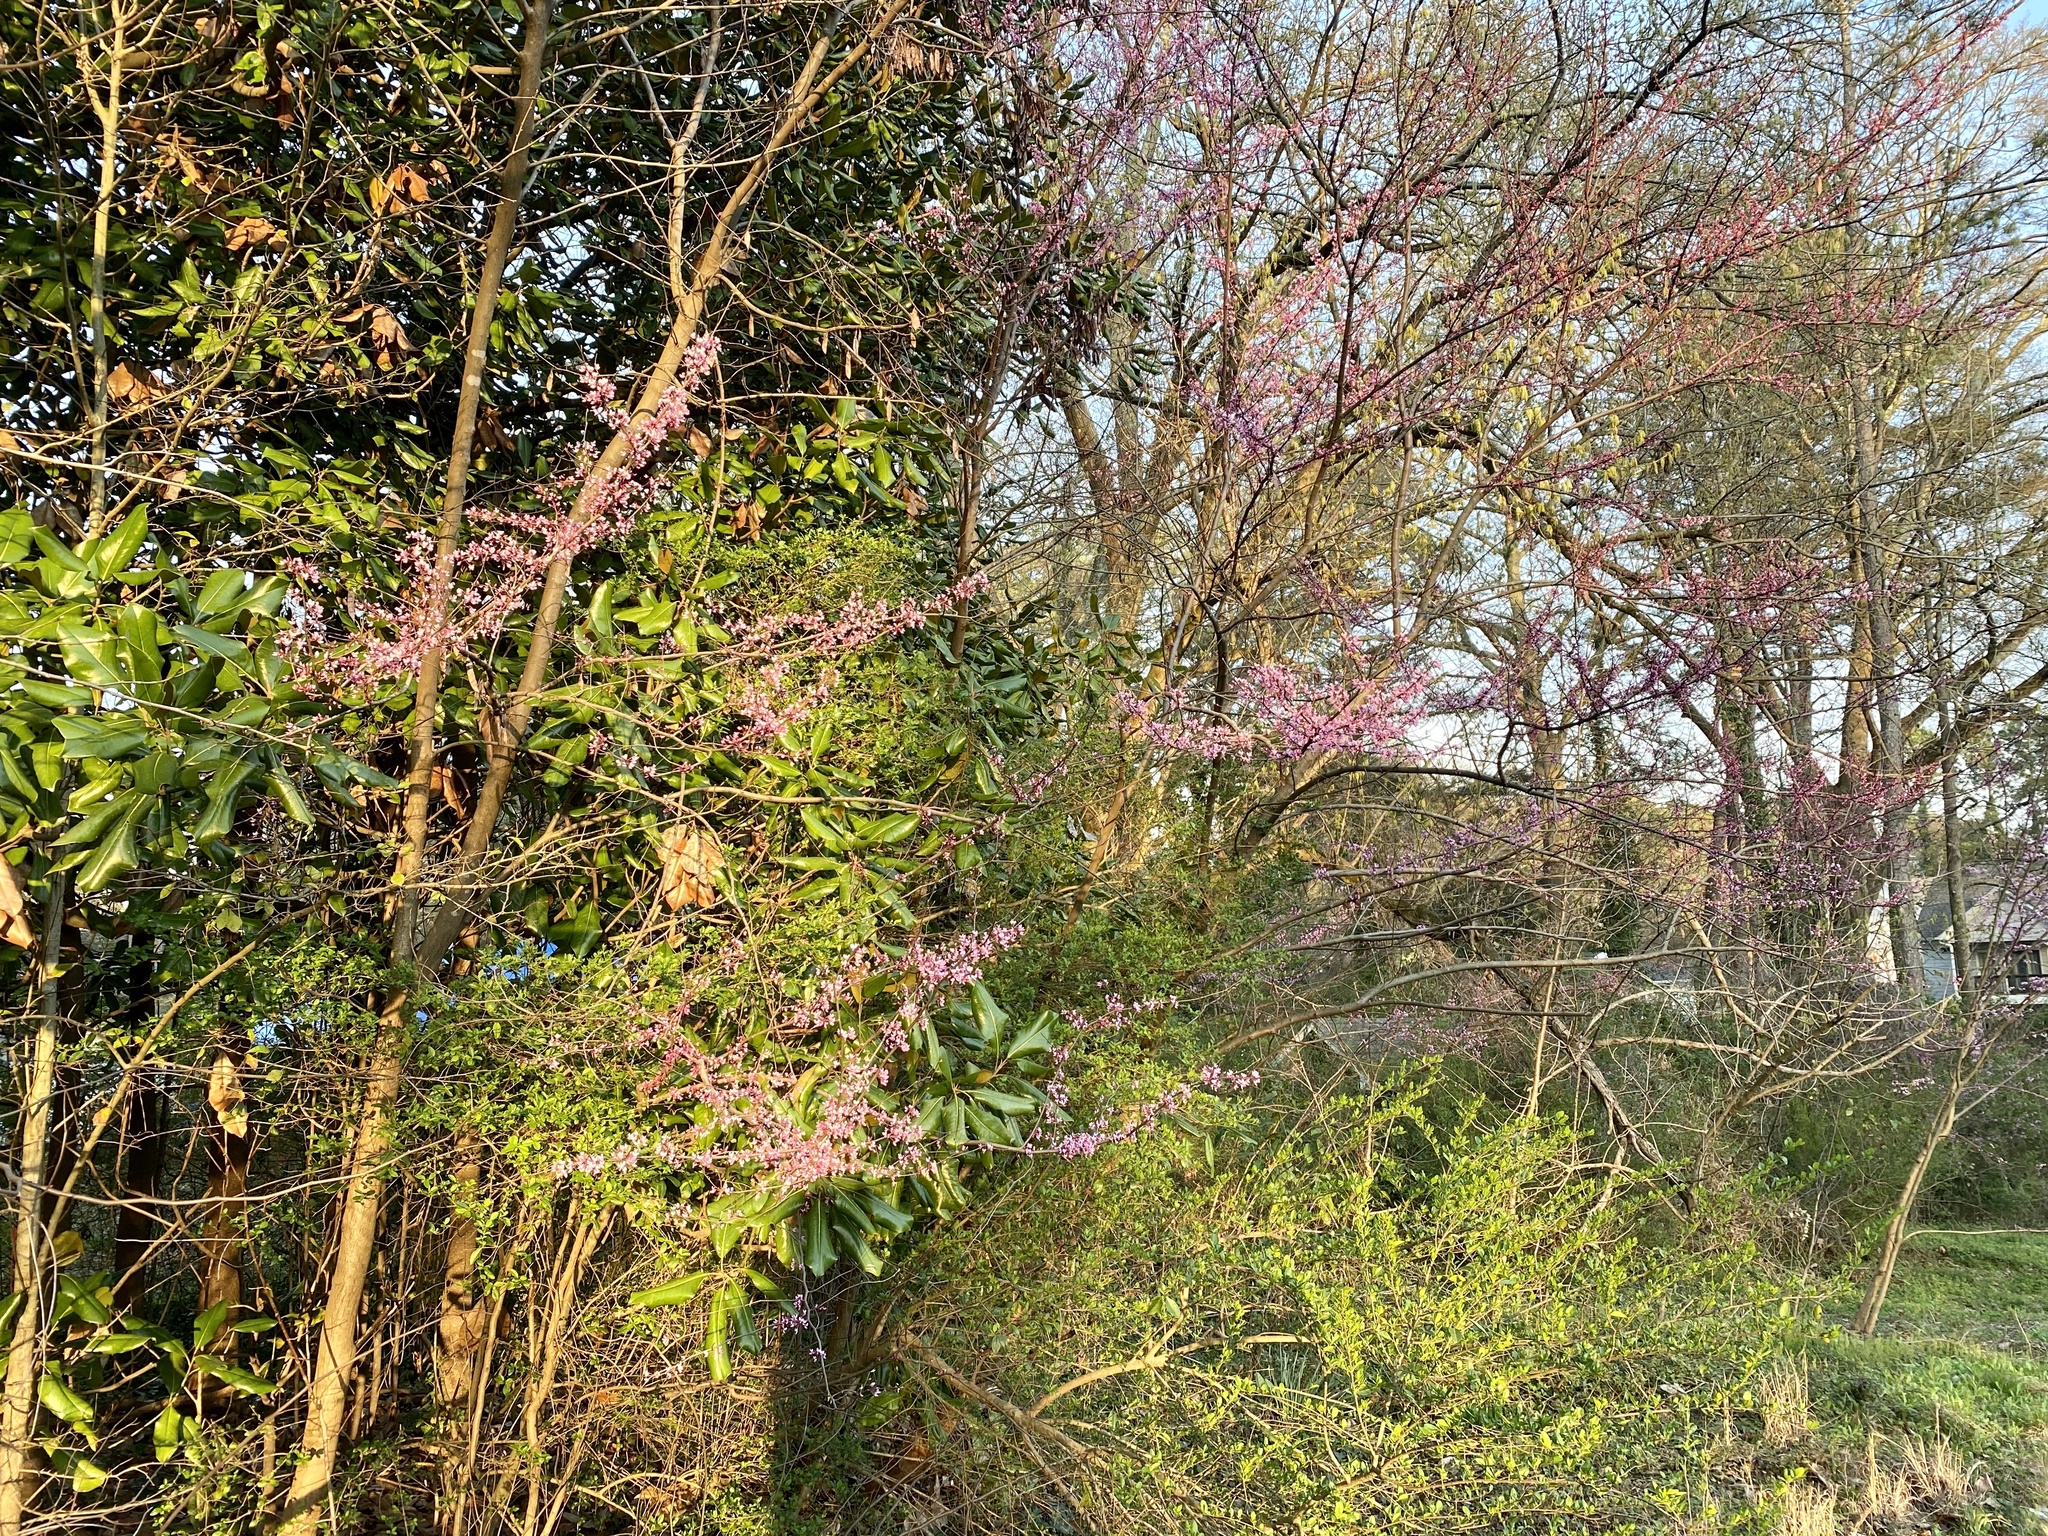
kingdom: Plantae
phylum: Tracheophyta
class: Magnoliopsida
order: Fabales
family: Fabaceae
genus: Cercis
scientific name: Cercis canadensis
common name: Eastern redbud
